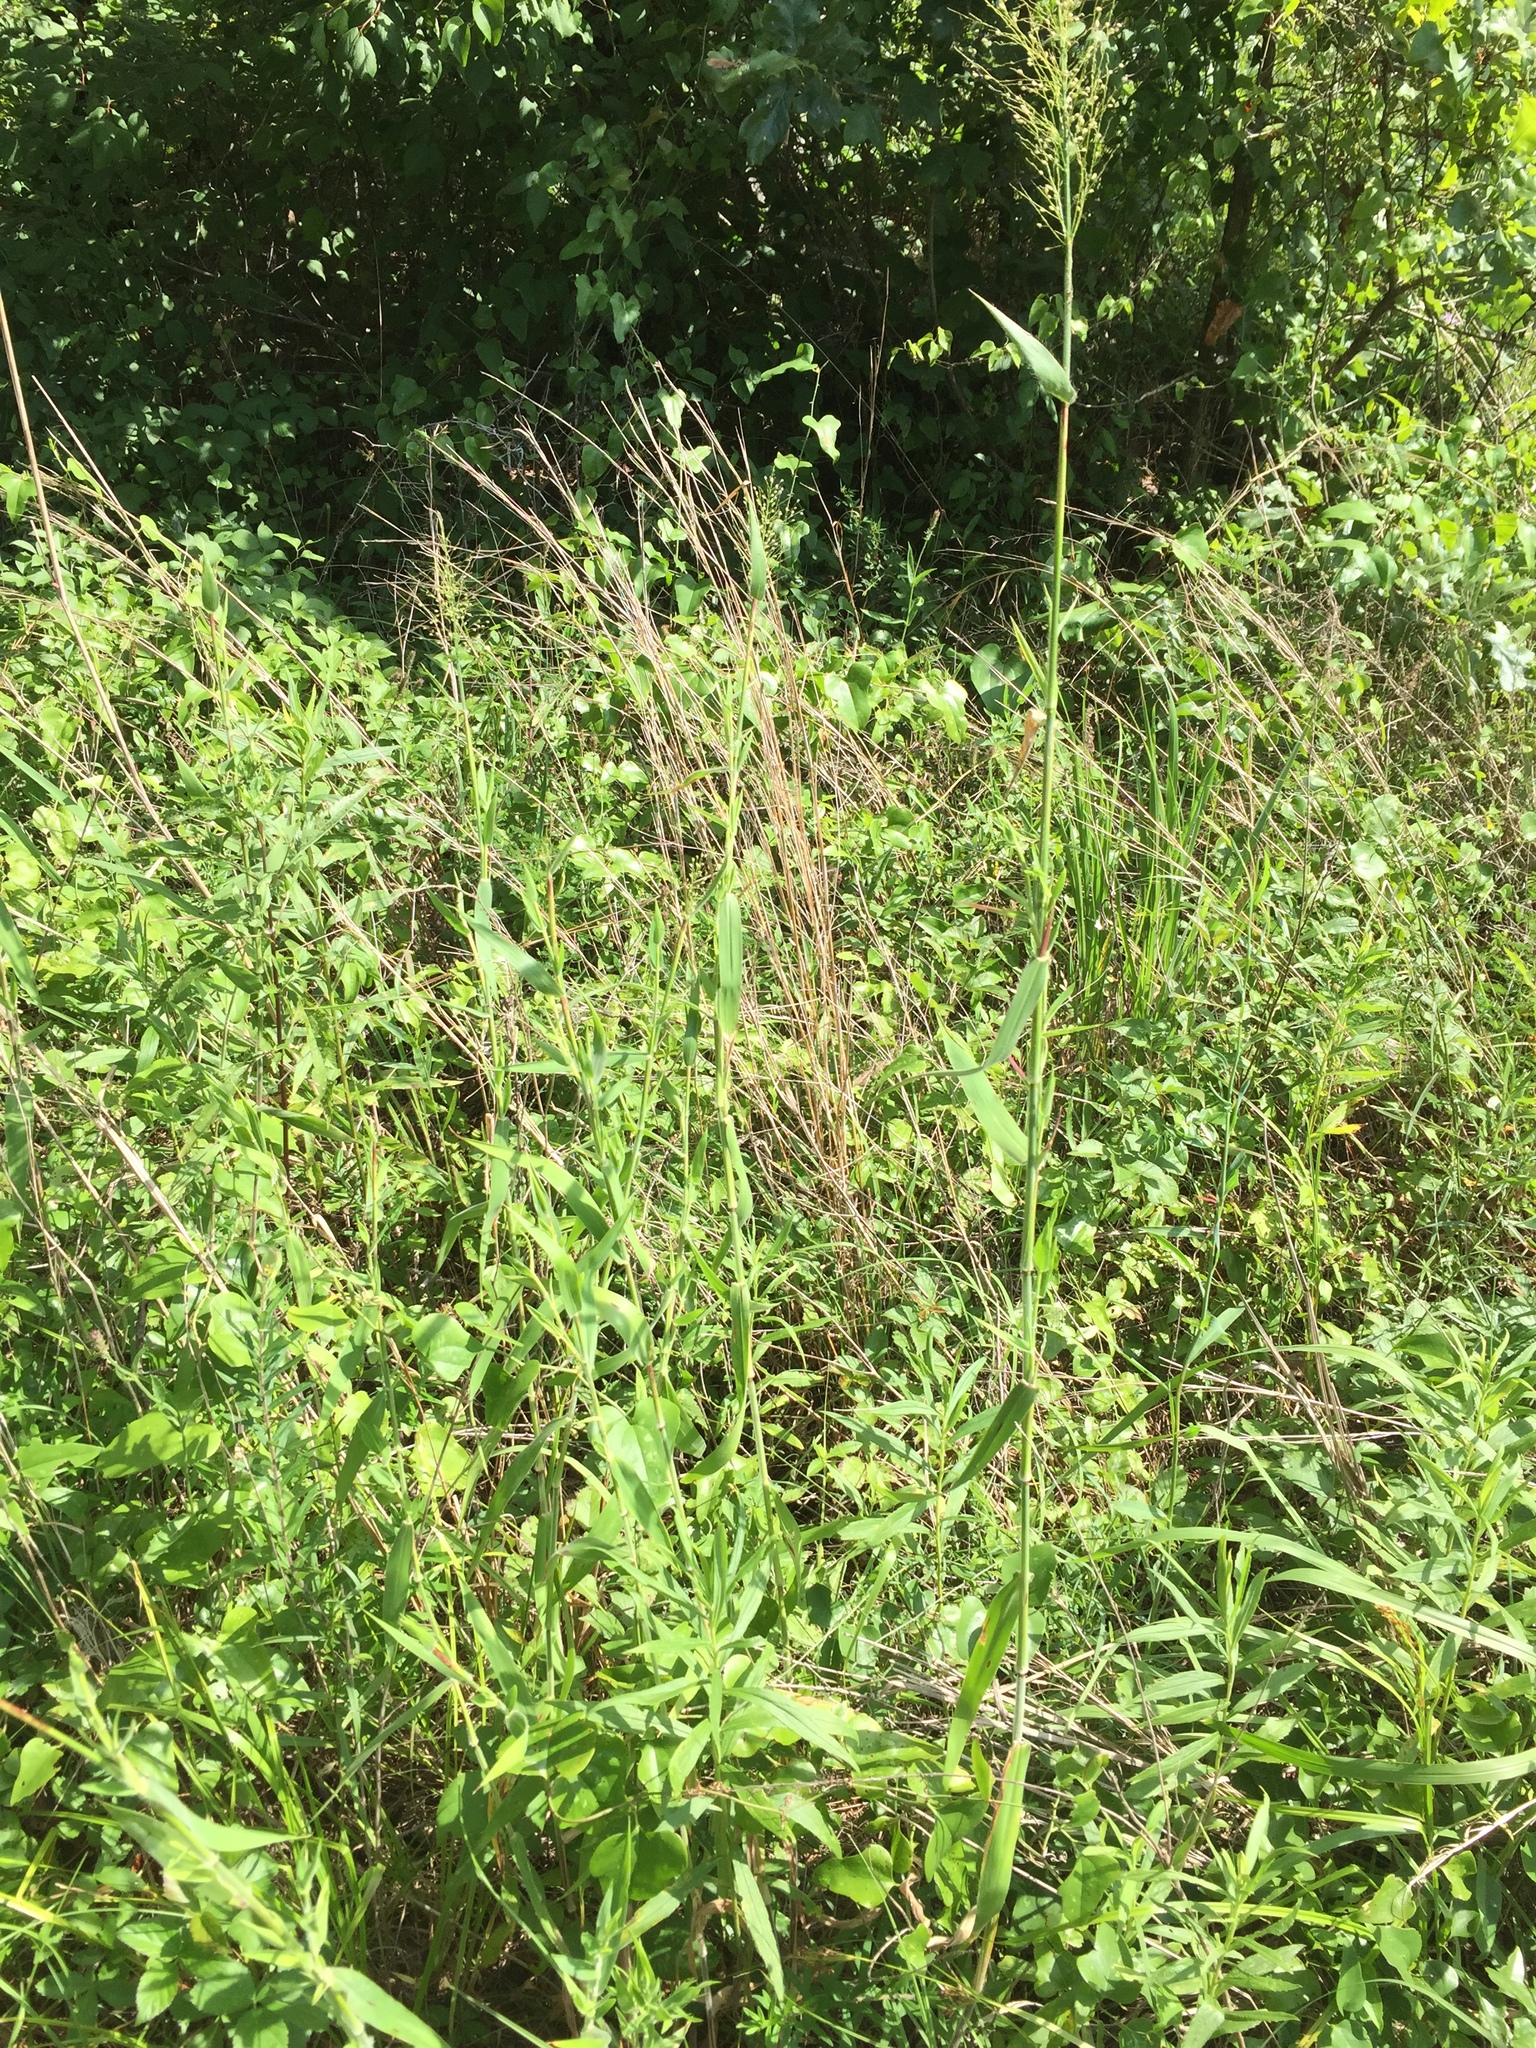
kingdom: Plantae
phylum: Tracheophyta
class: Liliopsida
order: Poales
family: Poaceae
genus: Dichanthelium
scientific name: Dichanthelium scoparium
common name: Velvety panic grass
